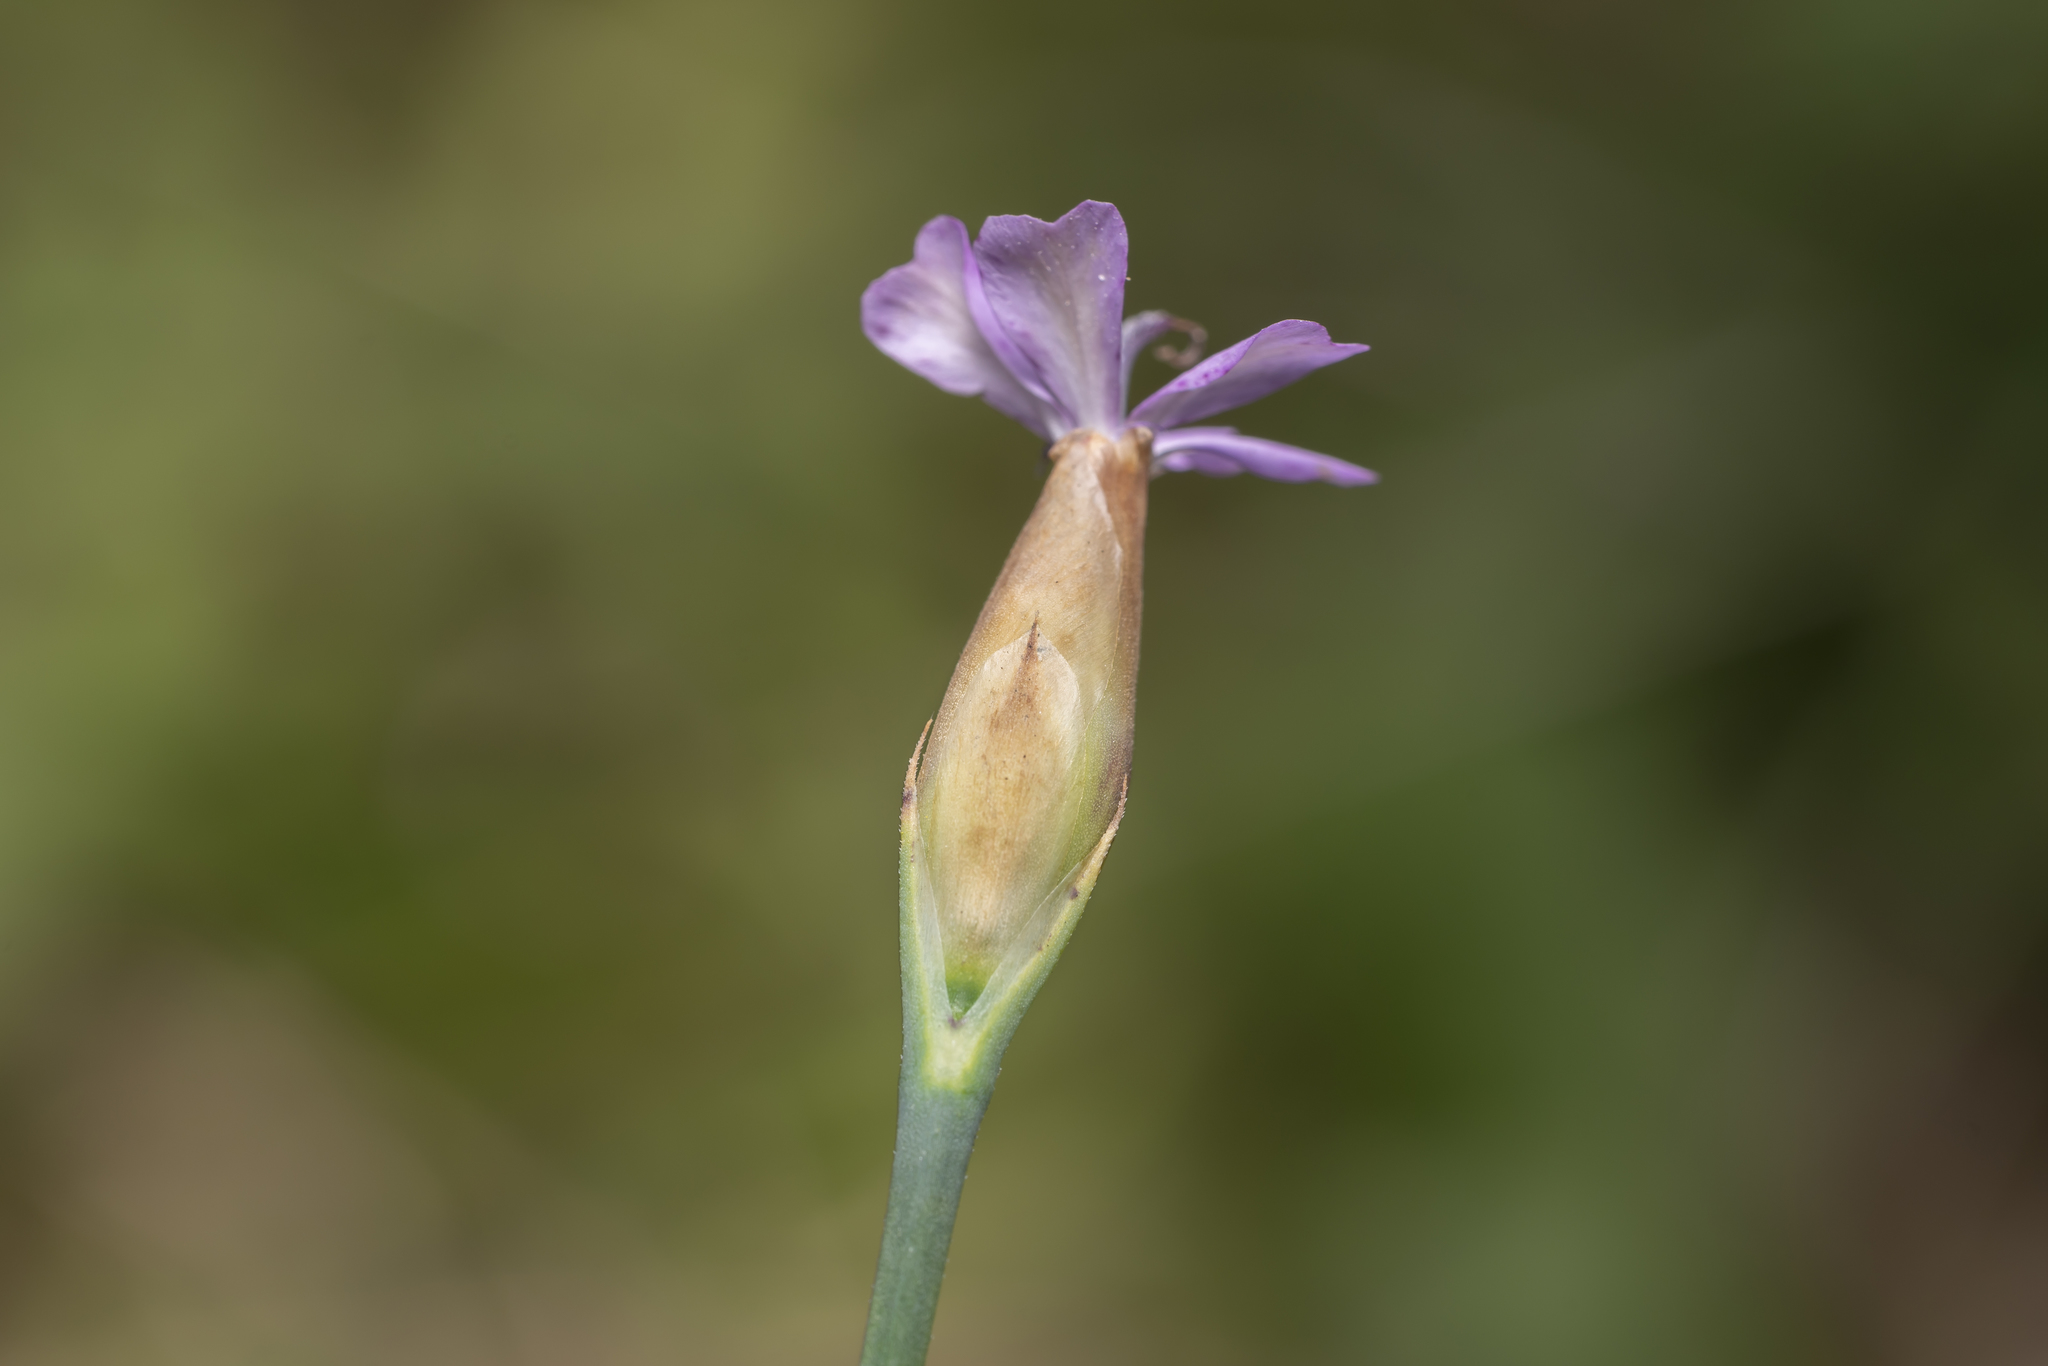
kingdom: Plantae
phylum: Tracheophyta
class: Magnoliopsida
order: Caryophyllales
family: Caryophyllaceae
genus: Petrorhagia
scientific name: Petrorhagia prolifera
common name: Proliferous pink
